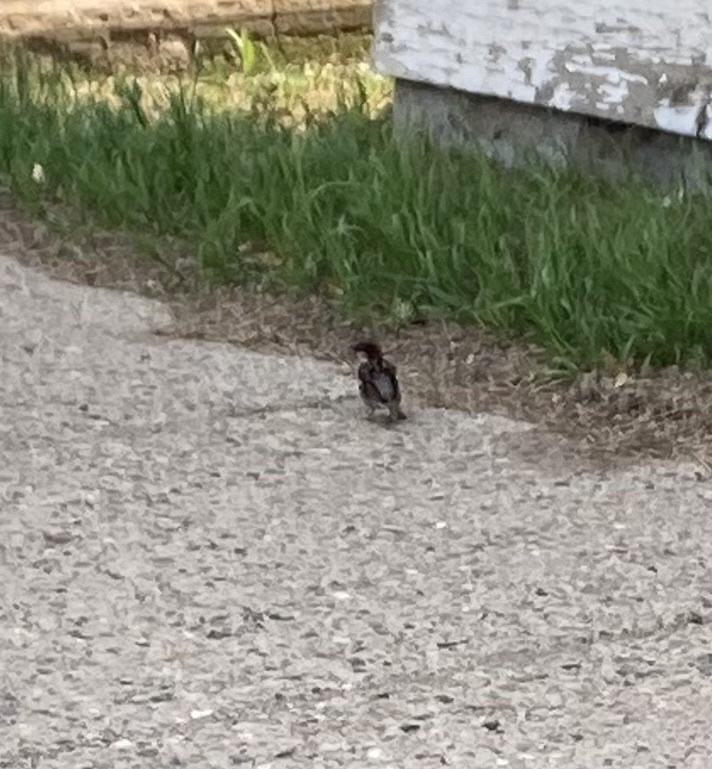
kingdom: Animalia
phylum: Chordata
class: Aves
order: Passeriformes
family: Passeridae
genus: Passer
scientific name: Passer domesticus
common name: House sparrow
